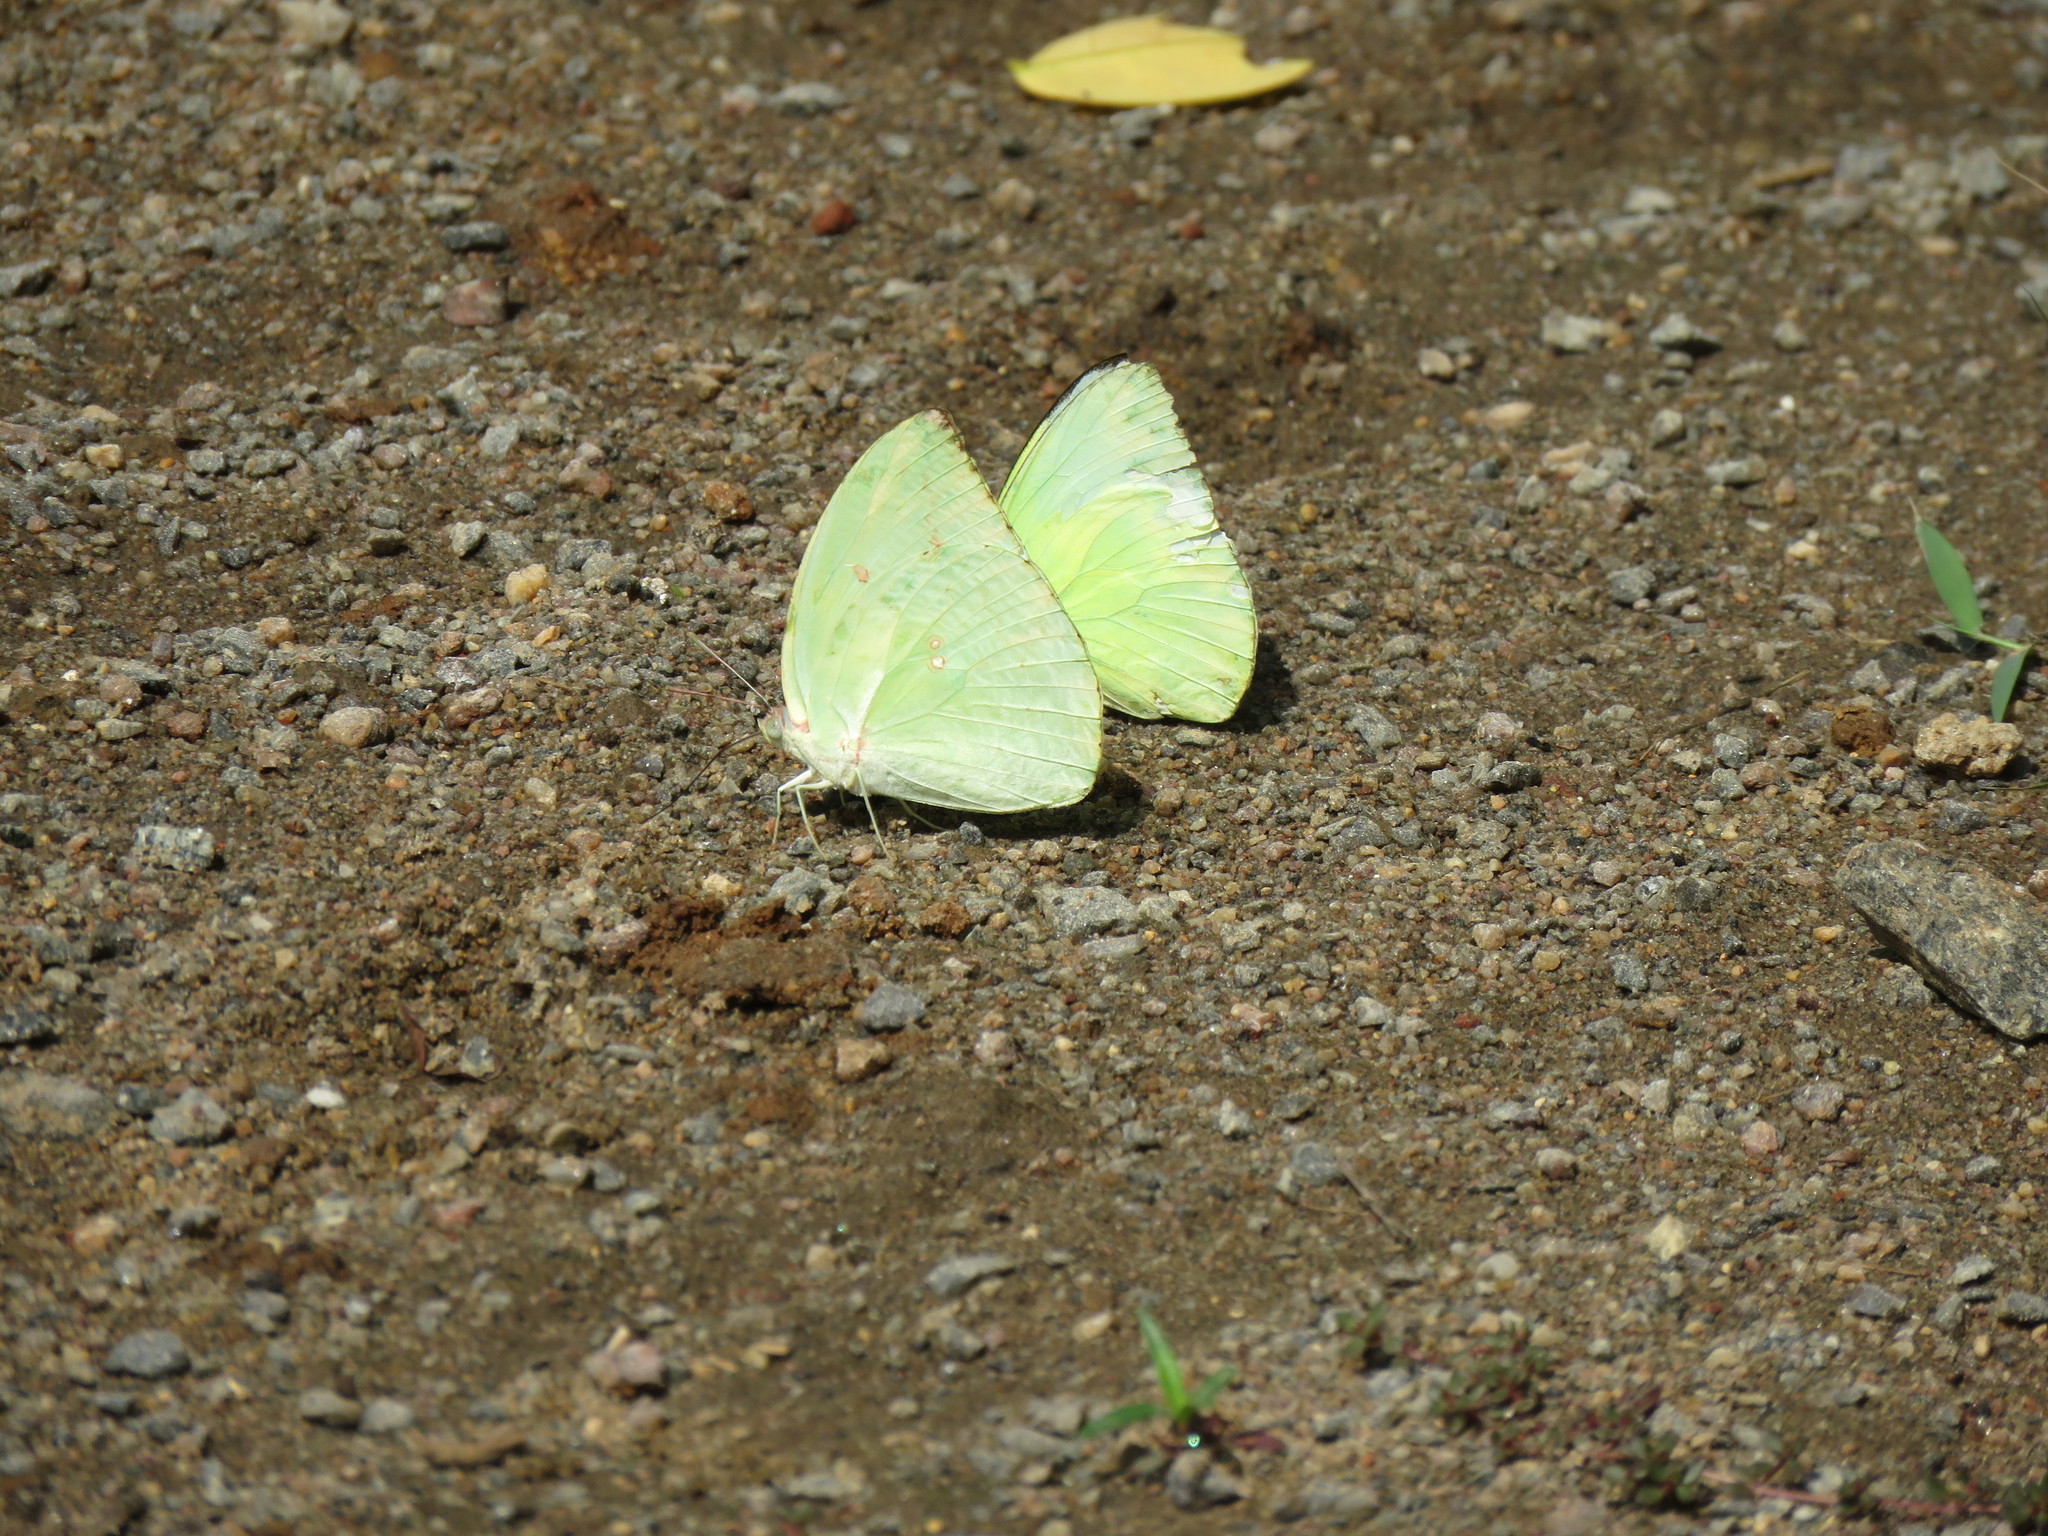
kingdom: Animalia
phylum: Arthropoda
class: Insecta
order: Lepidoptera
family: Pieridae
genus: Catopsilia
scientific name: Catopsilia pomona
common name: Common emigrant
